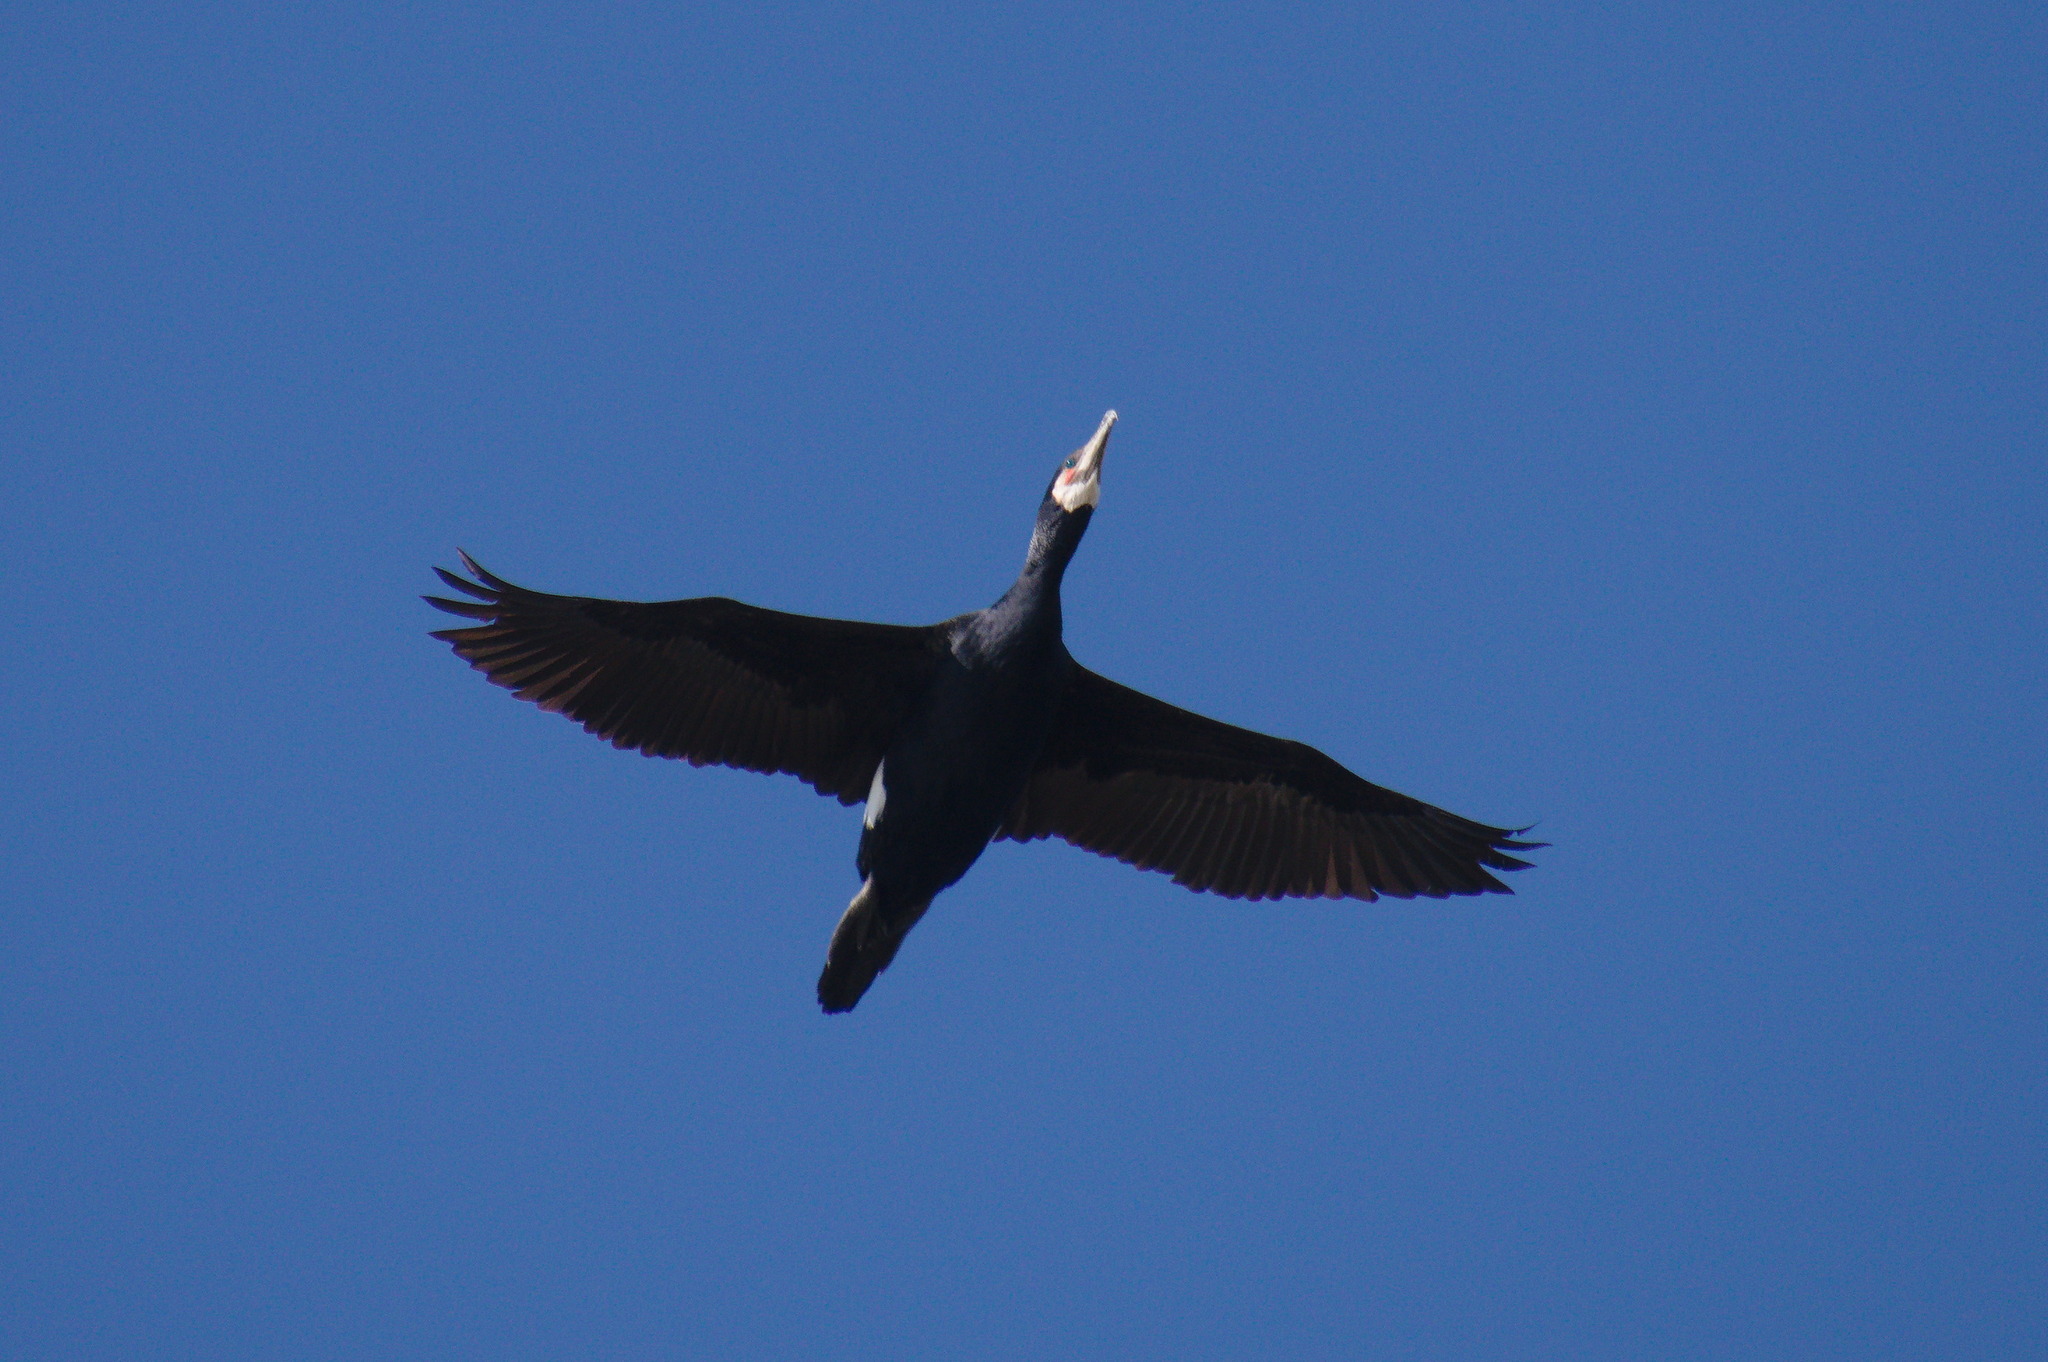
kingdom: Animalia
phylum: Chordata
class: Aves
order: Suliformes
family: Phalacrocoracidae
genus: Phalacrocorax
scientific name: Phalacrocorax carbo
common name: Great cormorant
